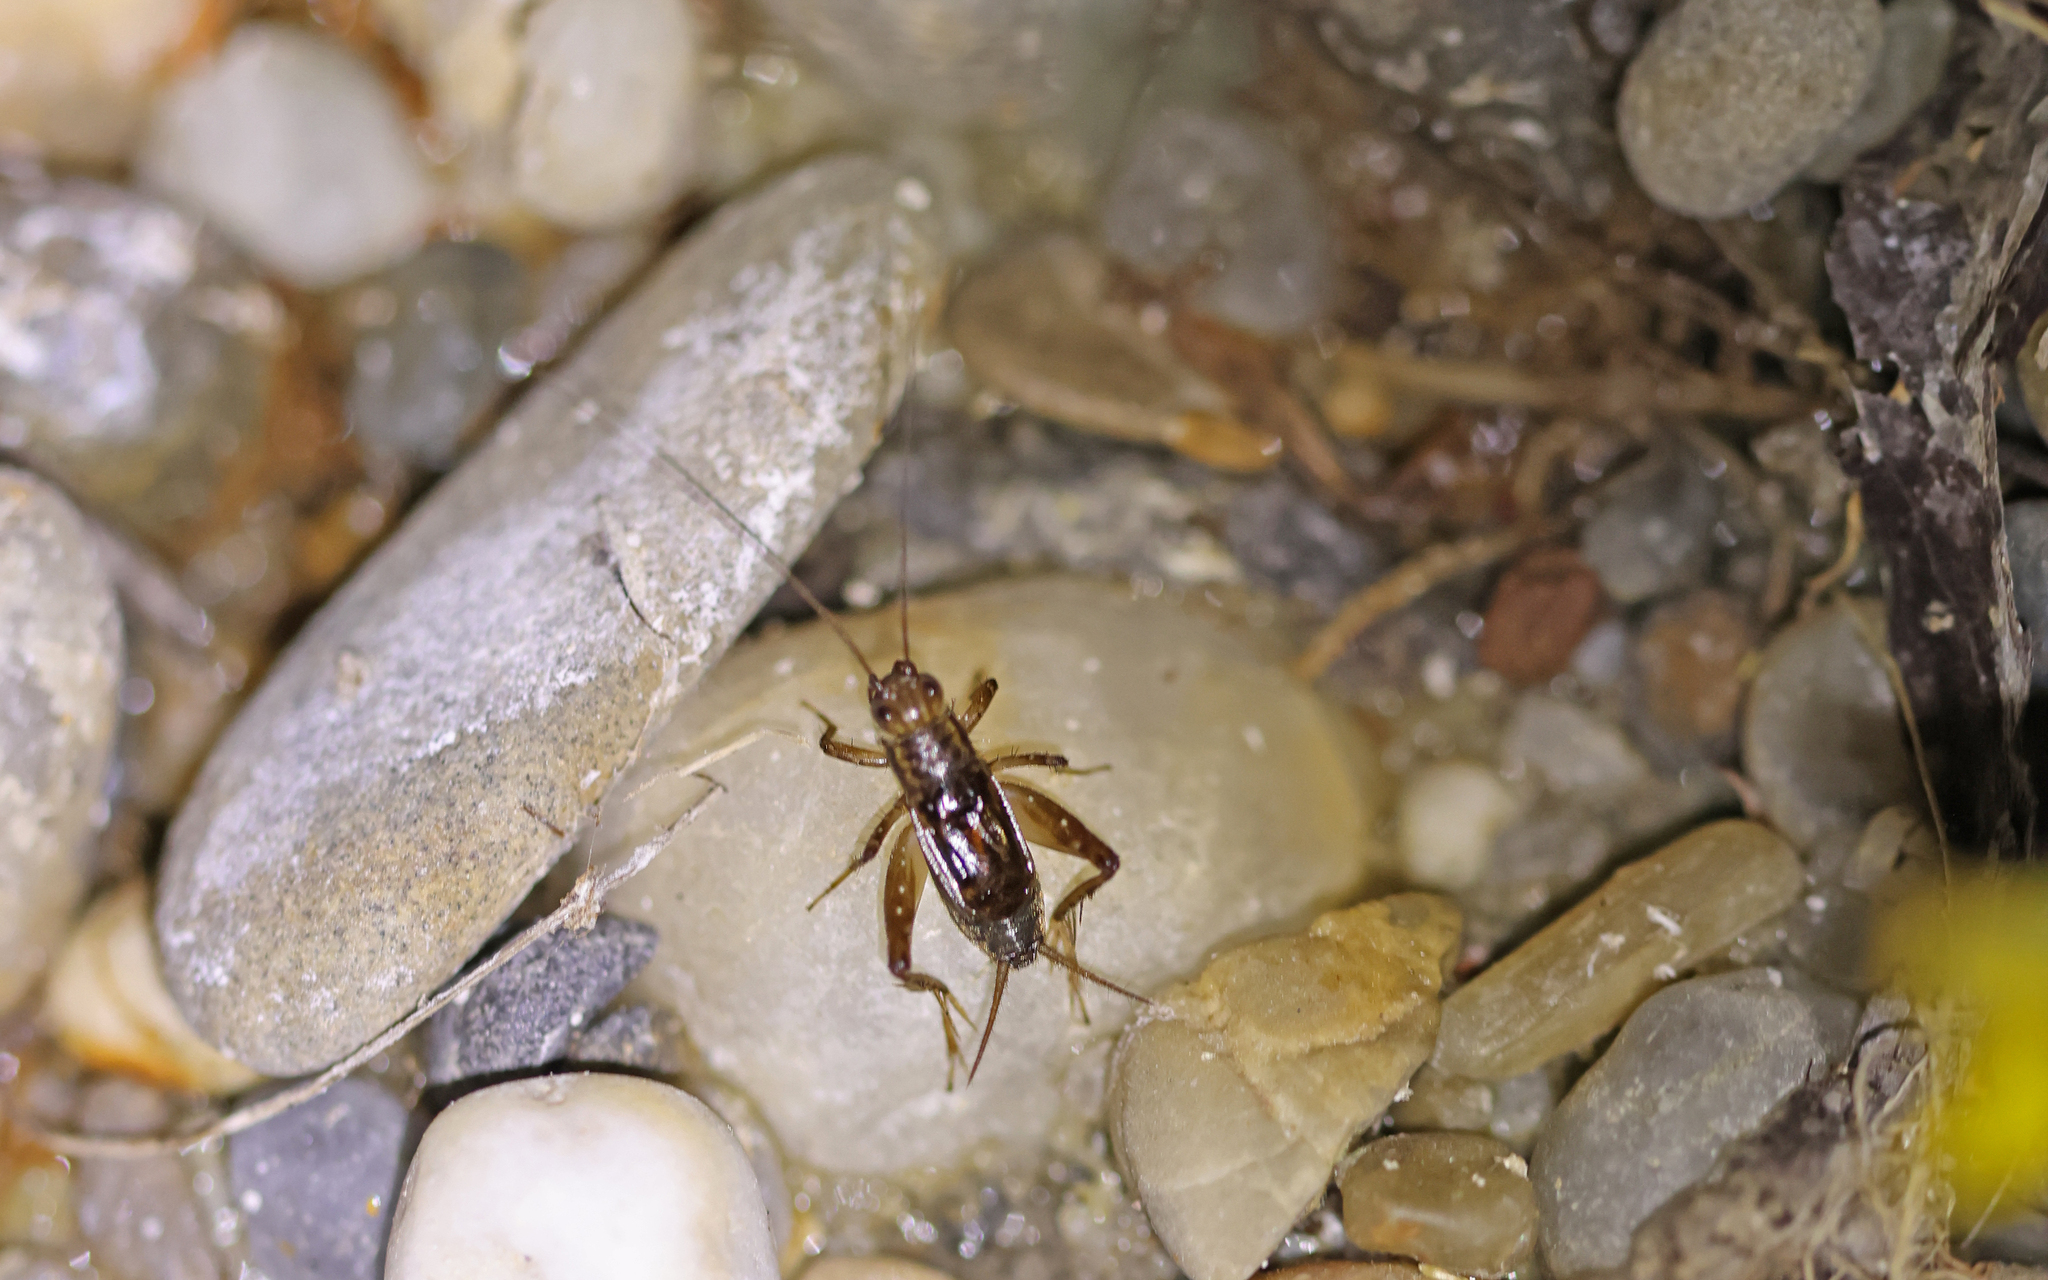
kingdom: Animalia
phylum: Arthropoda
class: Insecta
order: Orthoptera
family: Trigonidiidae
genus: Pteronemobius
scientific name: Pteronemobius heydenii
